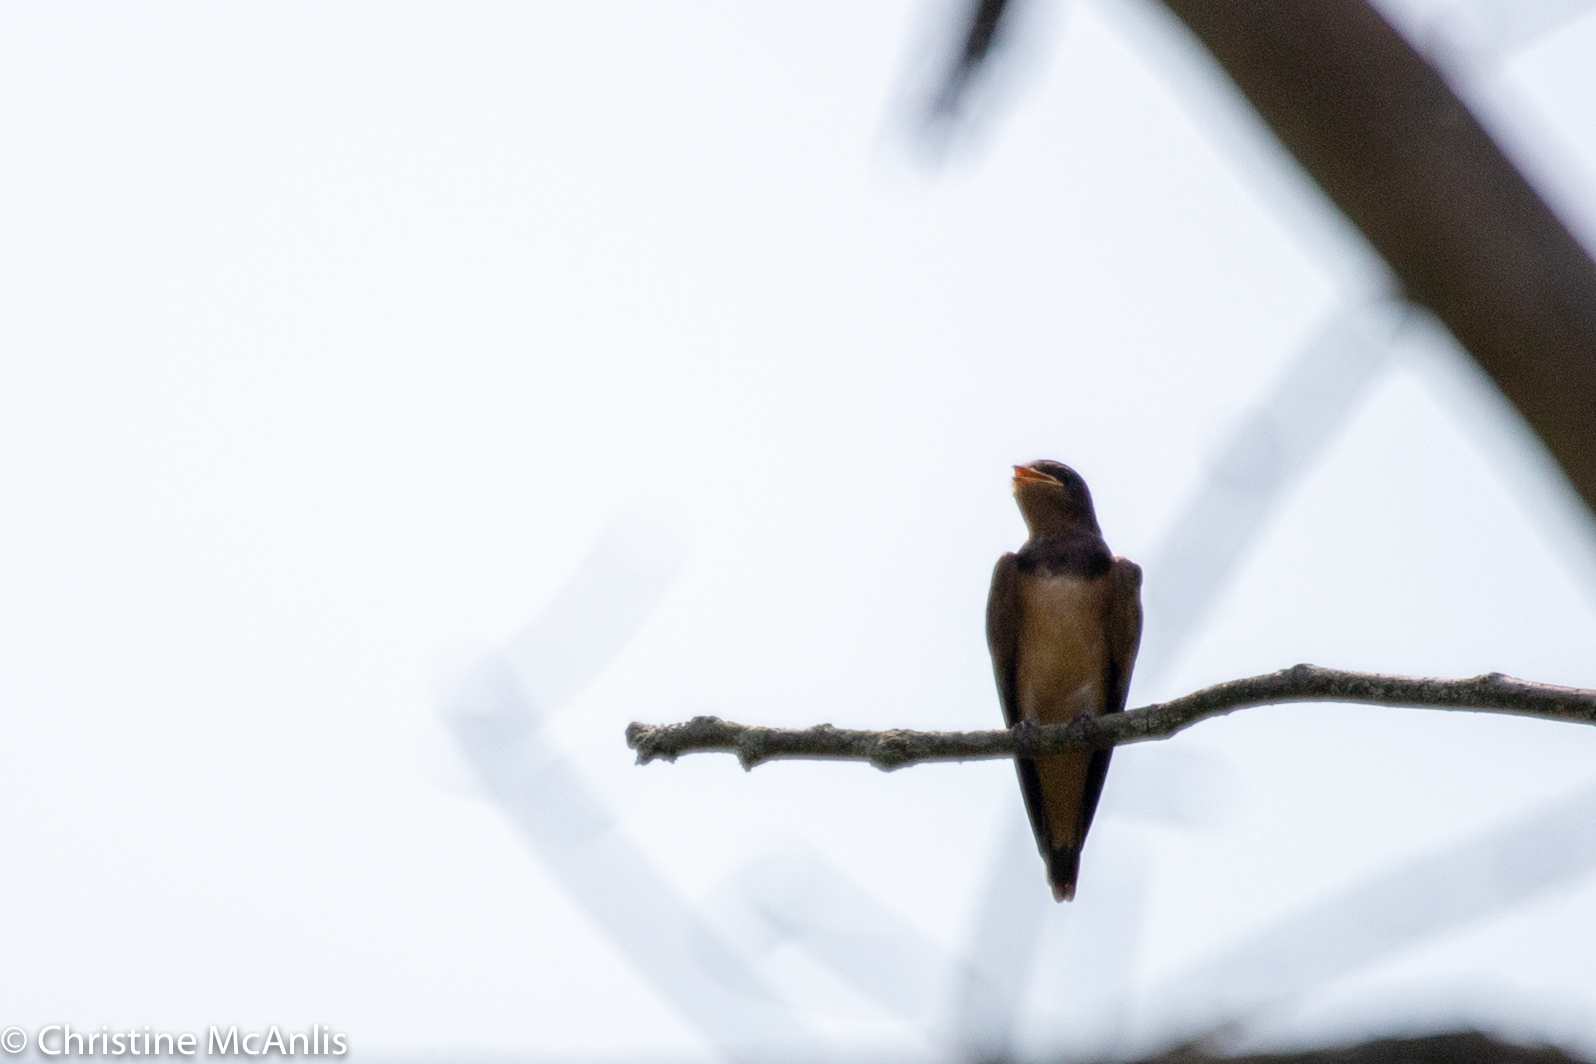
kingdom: Animalia
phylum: Chordata
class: Aves
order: Passeriformes
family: Hirundinidae
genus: Hirundo
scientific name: Hirundo rustica
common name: Barn swallow
